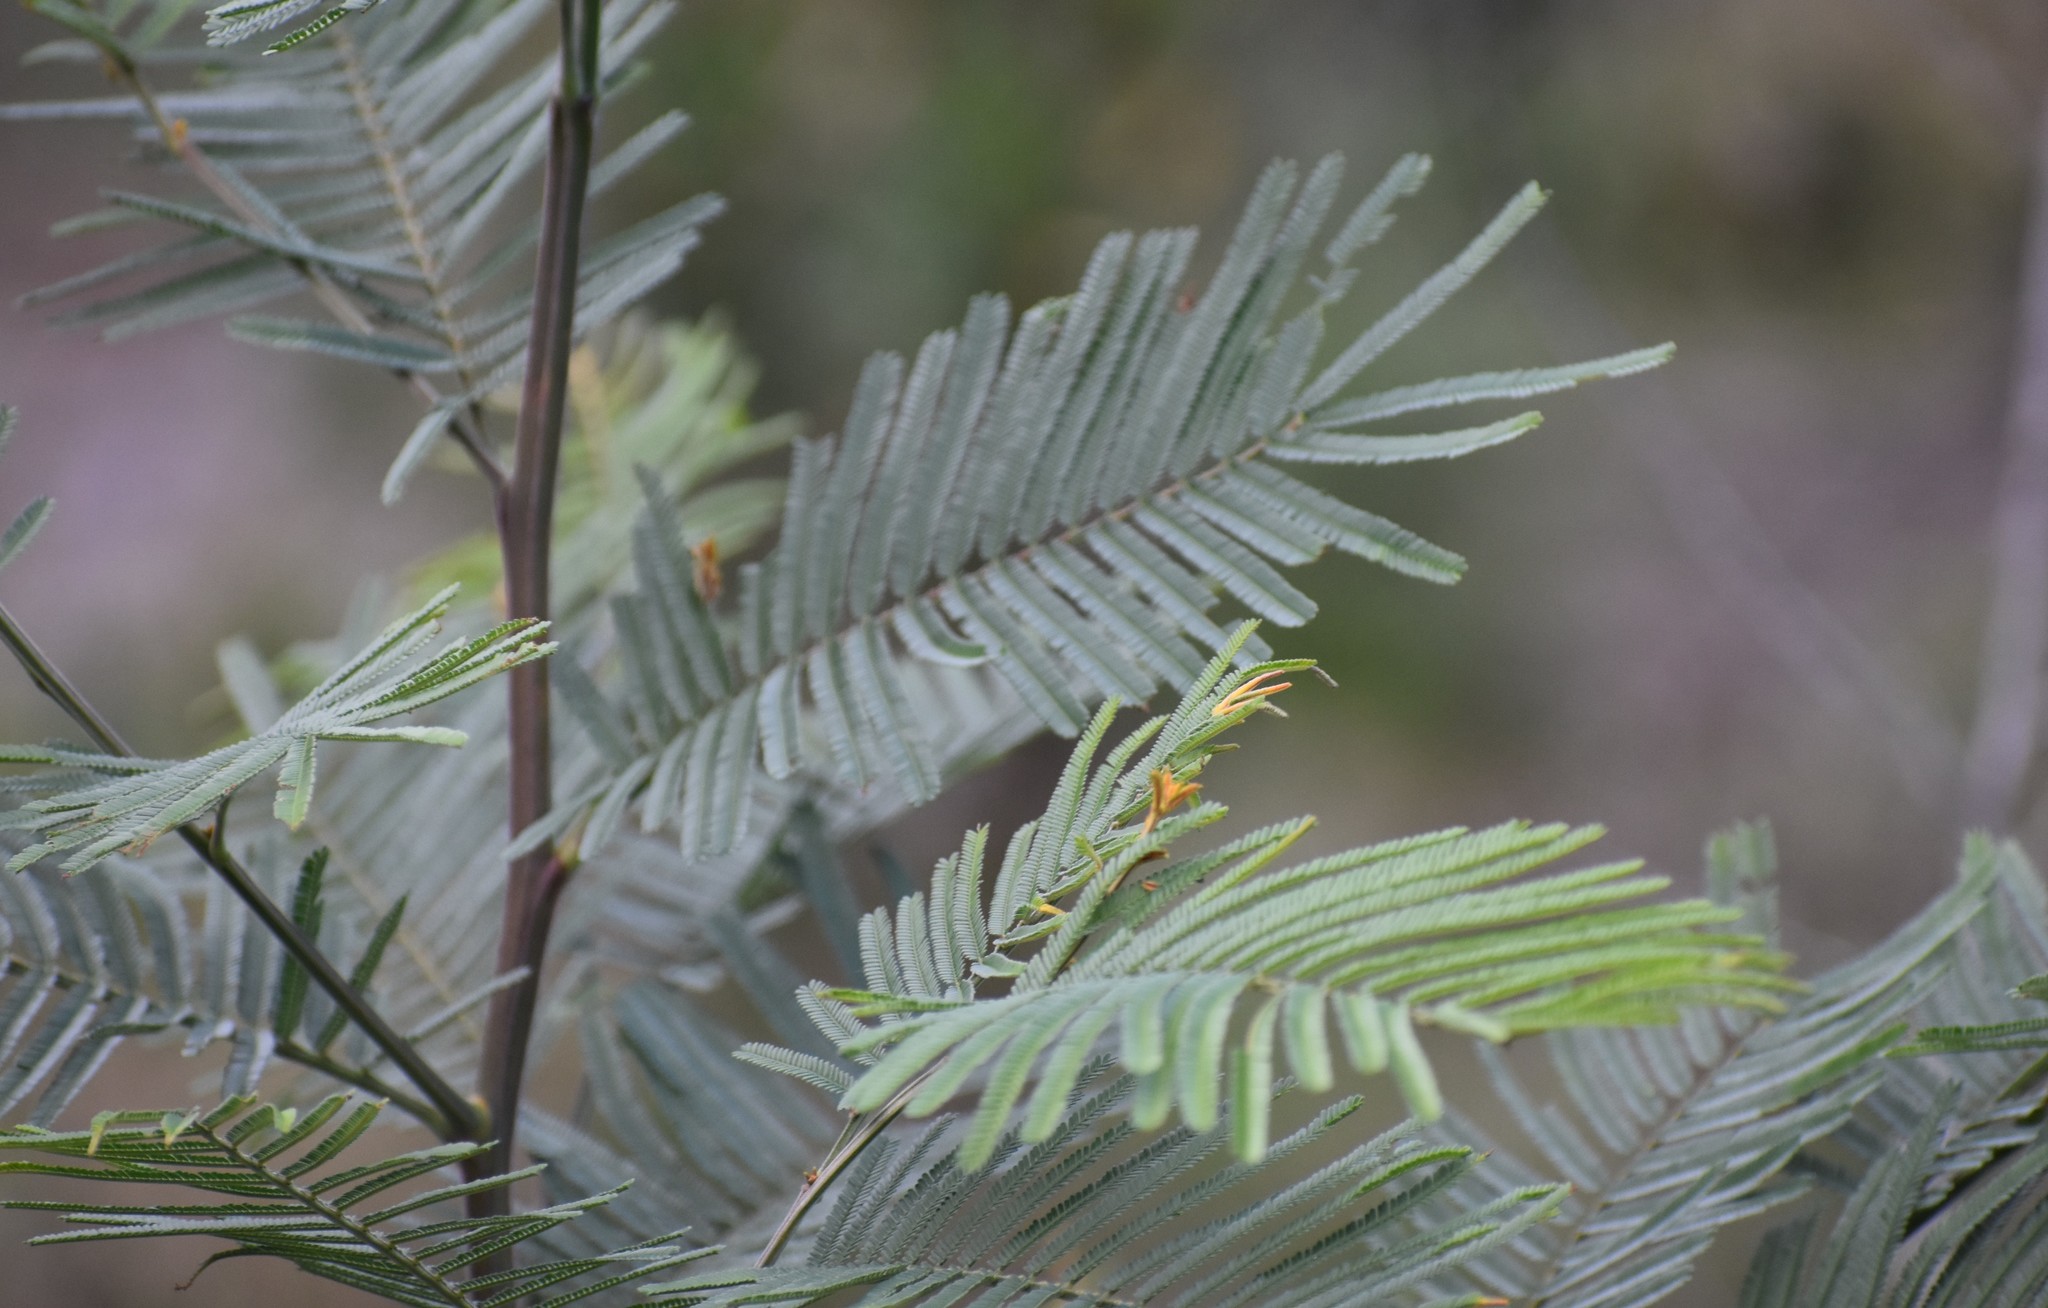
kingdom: Plantae
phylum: Tracheophyta
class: Magnoliopsida
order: Fabales
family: Fabaceae
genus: Acacia
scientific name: Acacia mearnsii
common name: Black wattle
